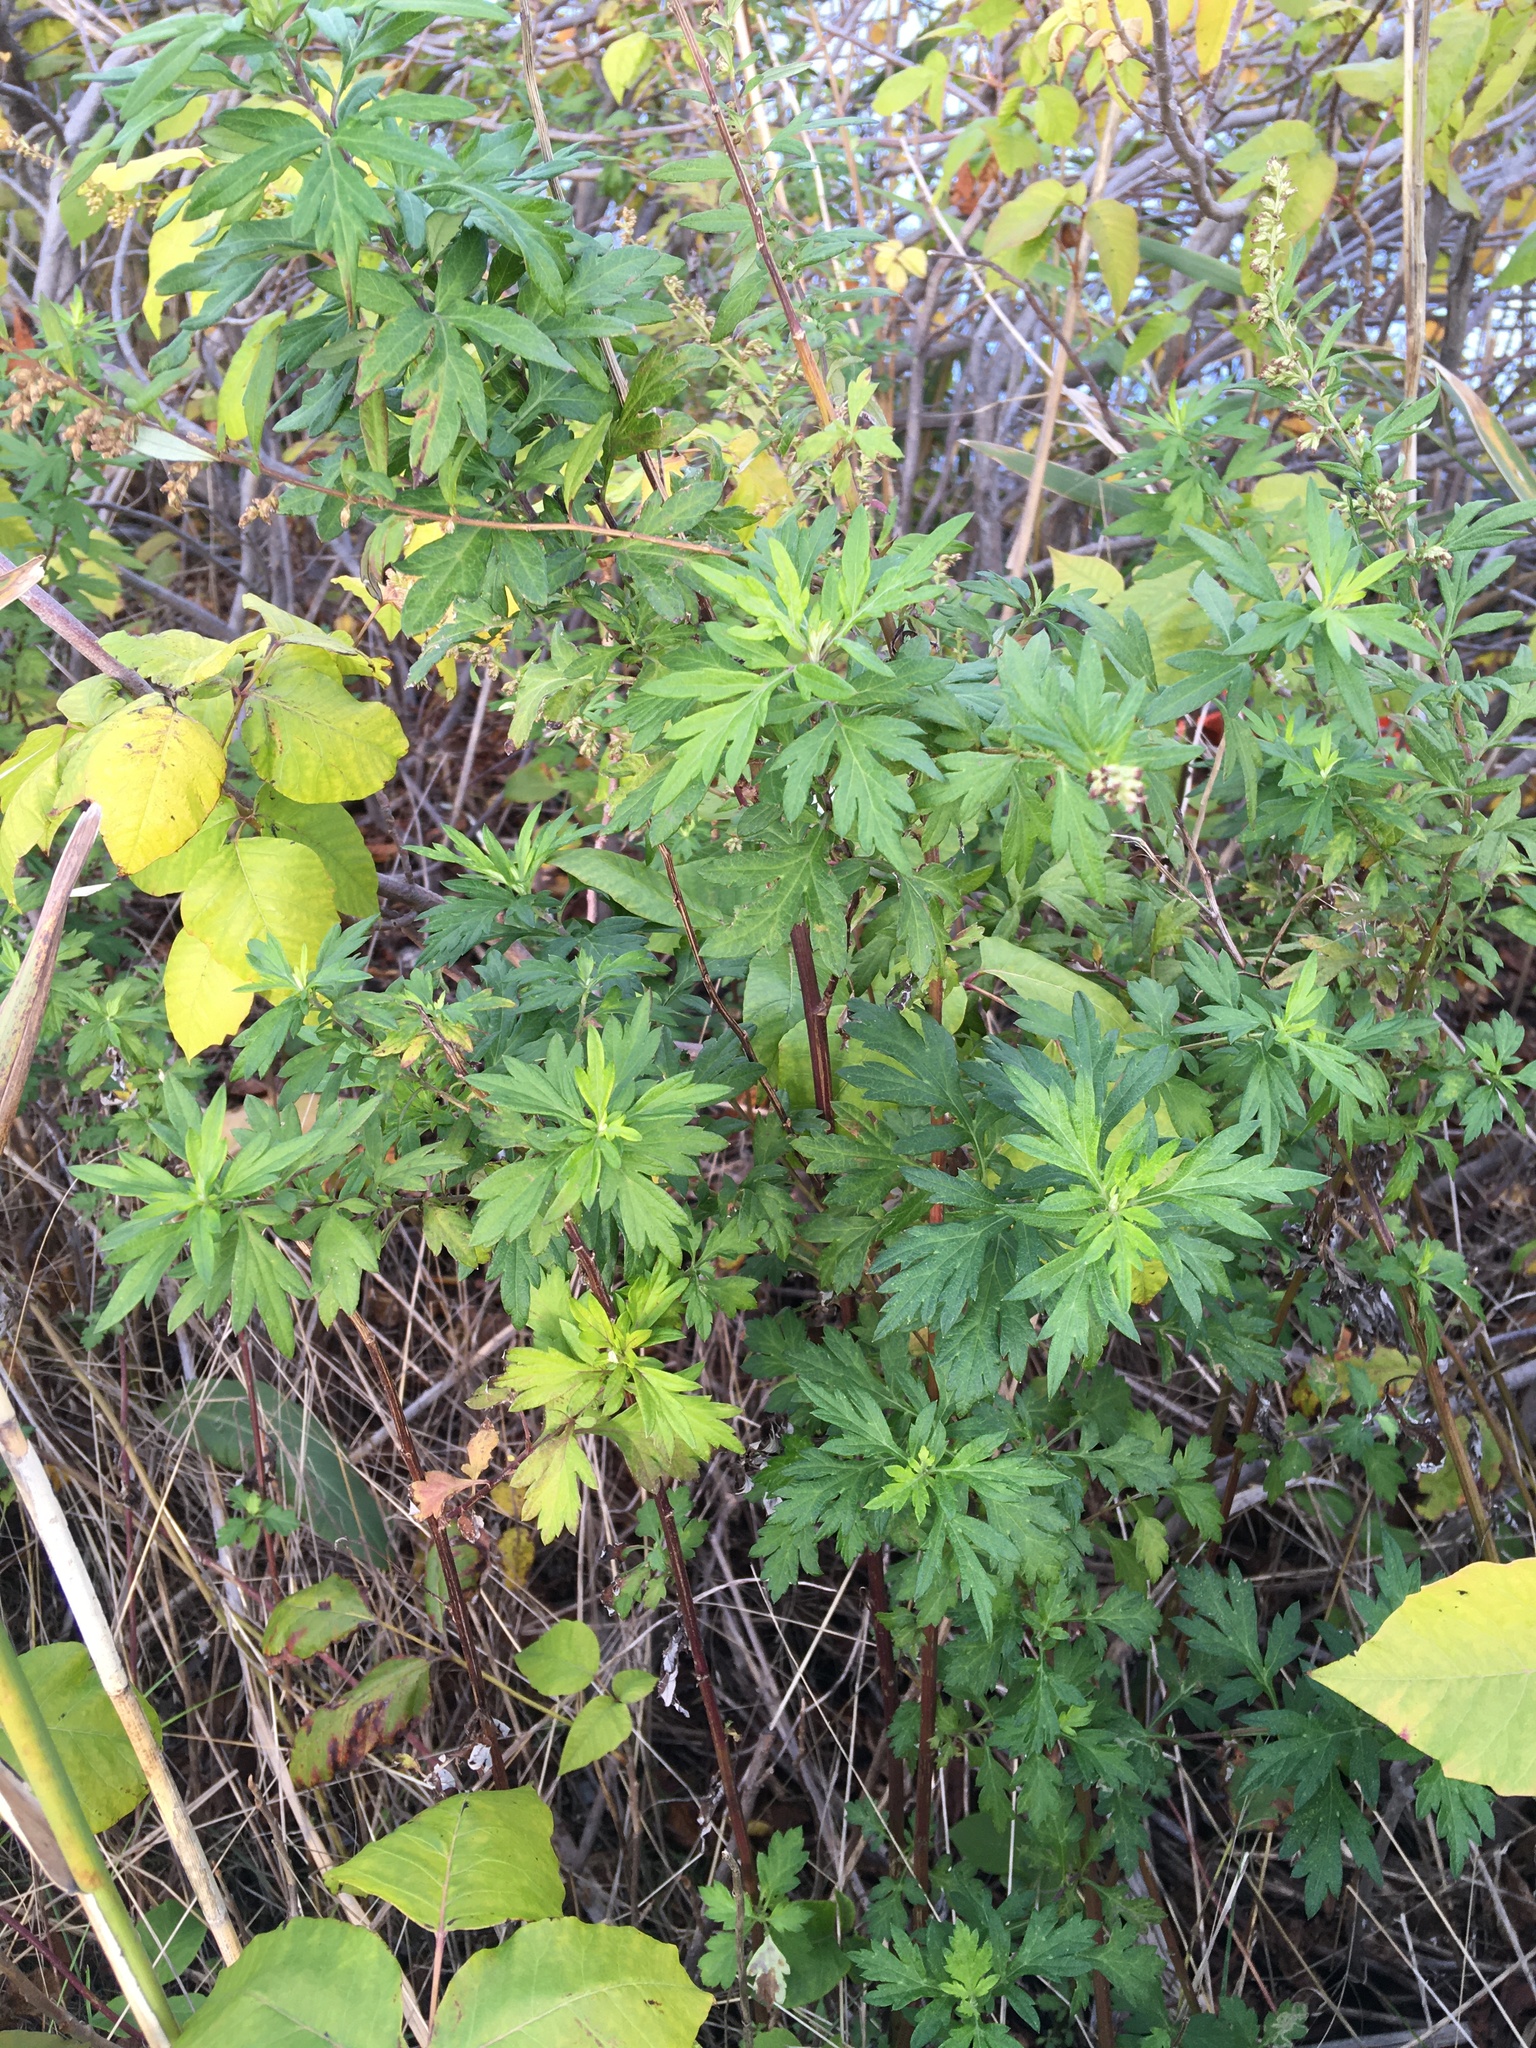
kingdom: Plantae
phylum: Tracheophyta
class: Magnoliopsida
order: Asterales
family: Asteraceae
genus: Artemisia
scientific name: Artemisia vulgaris
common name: Mugwort
